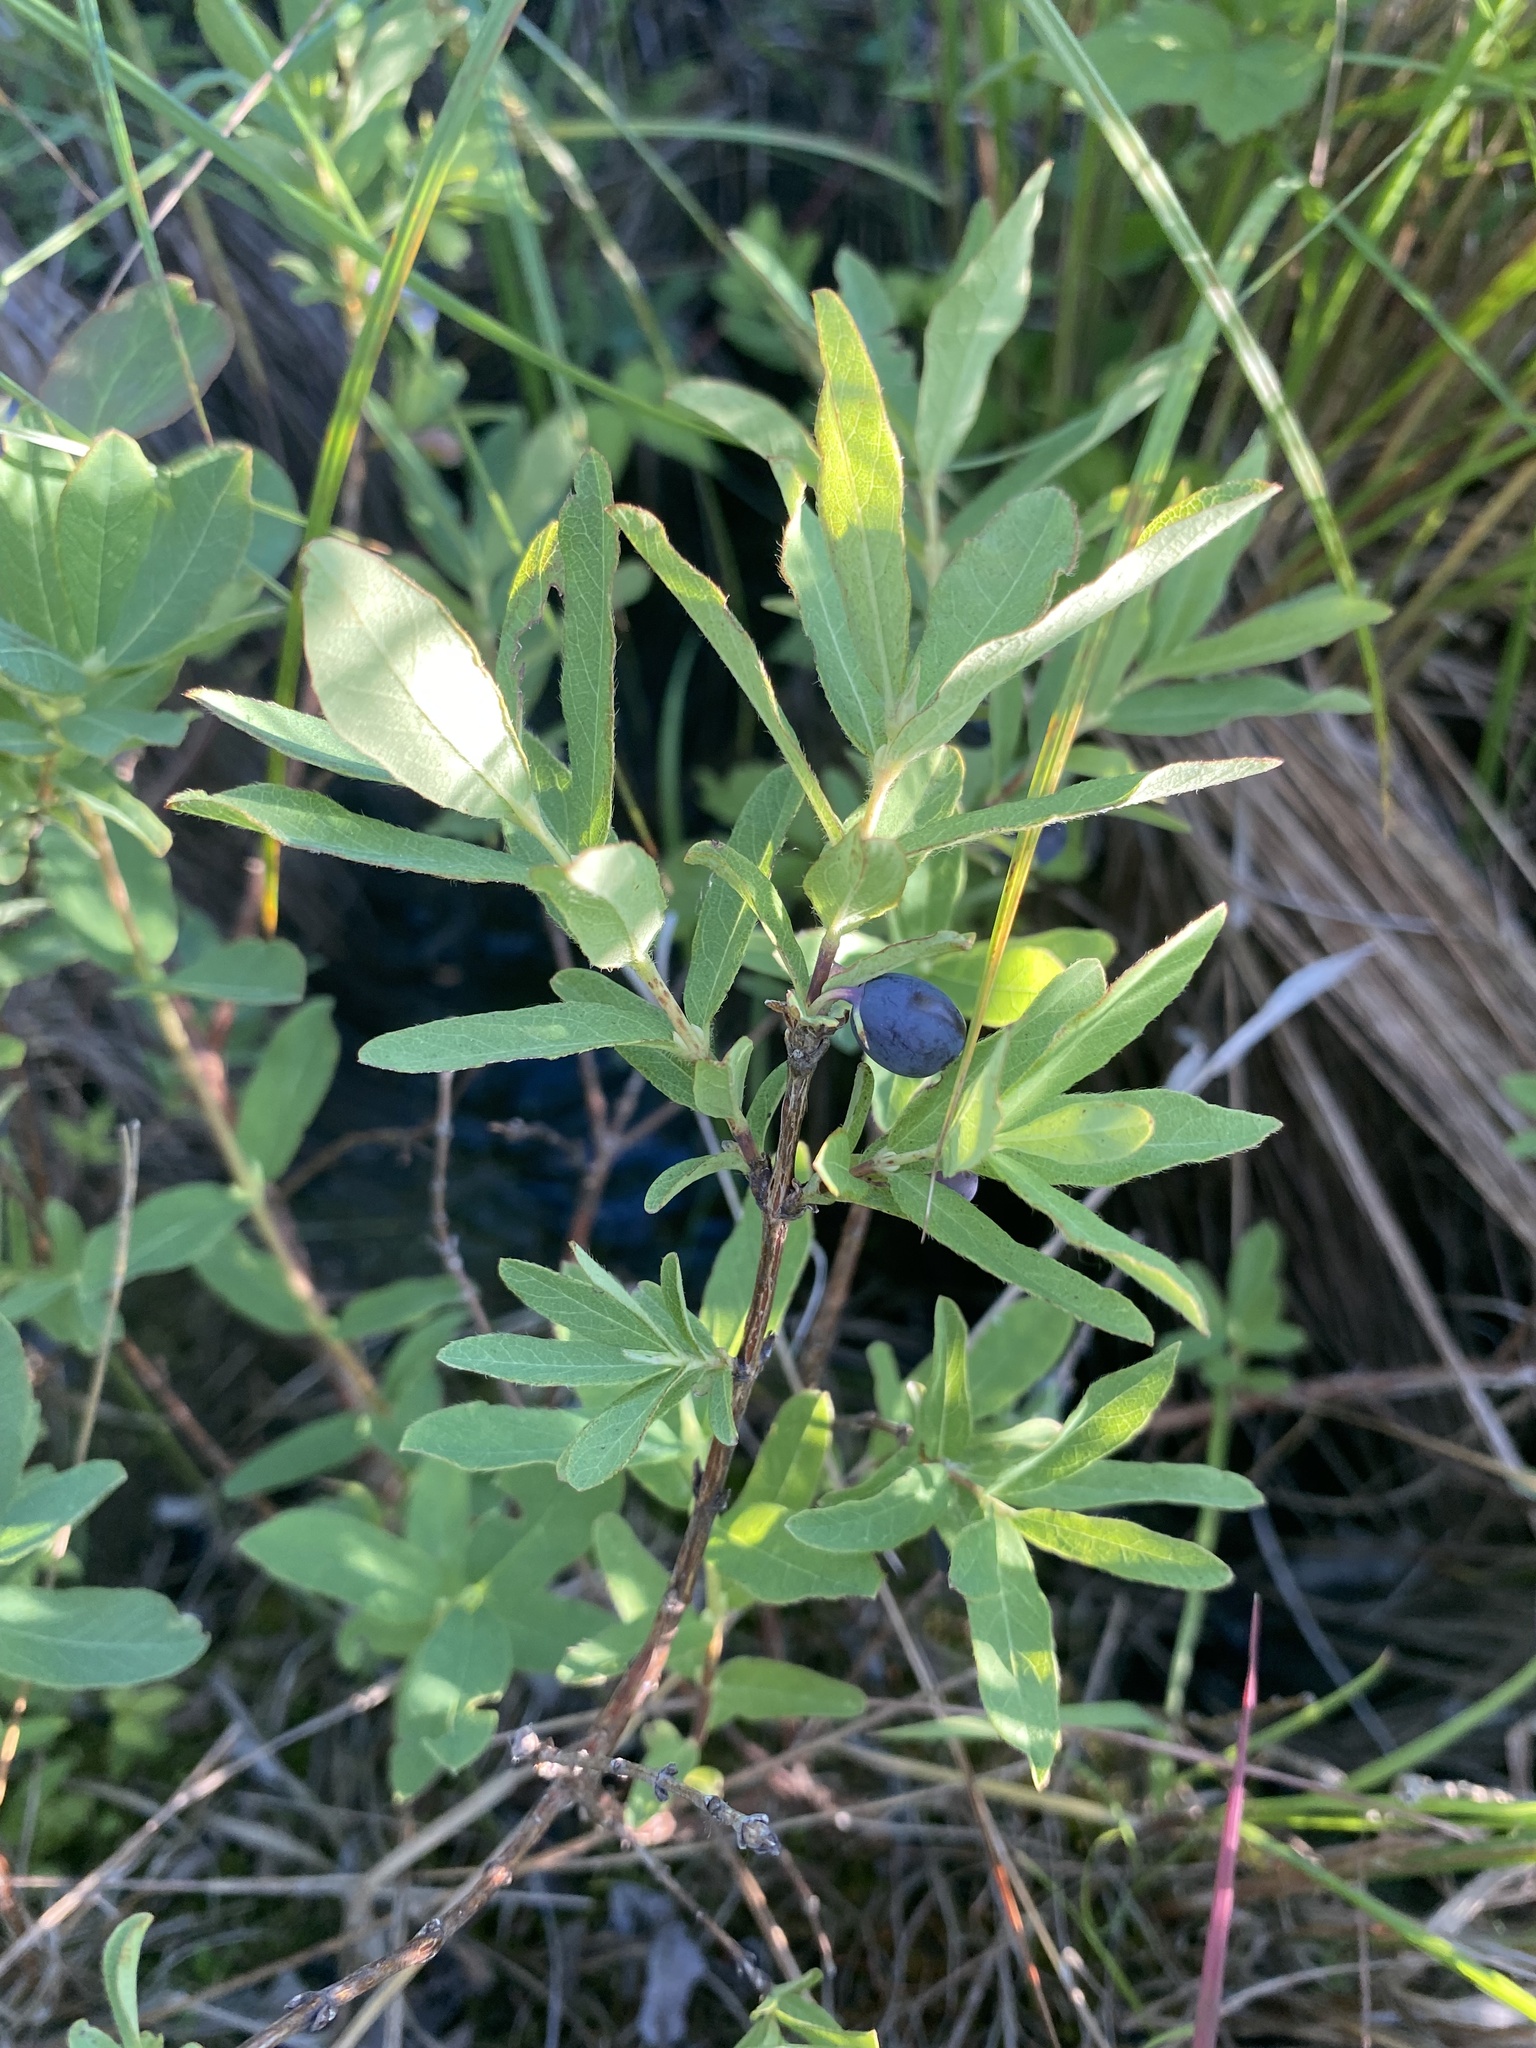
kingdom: Plantae
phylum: Tracheophyta
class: Magnoliopsida
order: Dipsacales
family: Caprifoliaceae
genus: Lonicera
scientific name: Lonicera villosa
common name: Mountain fly-honeysuckle
